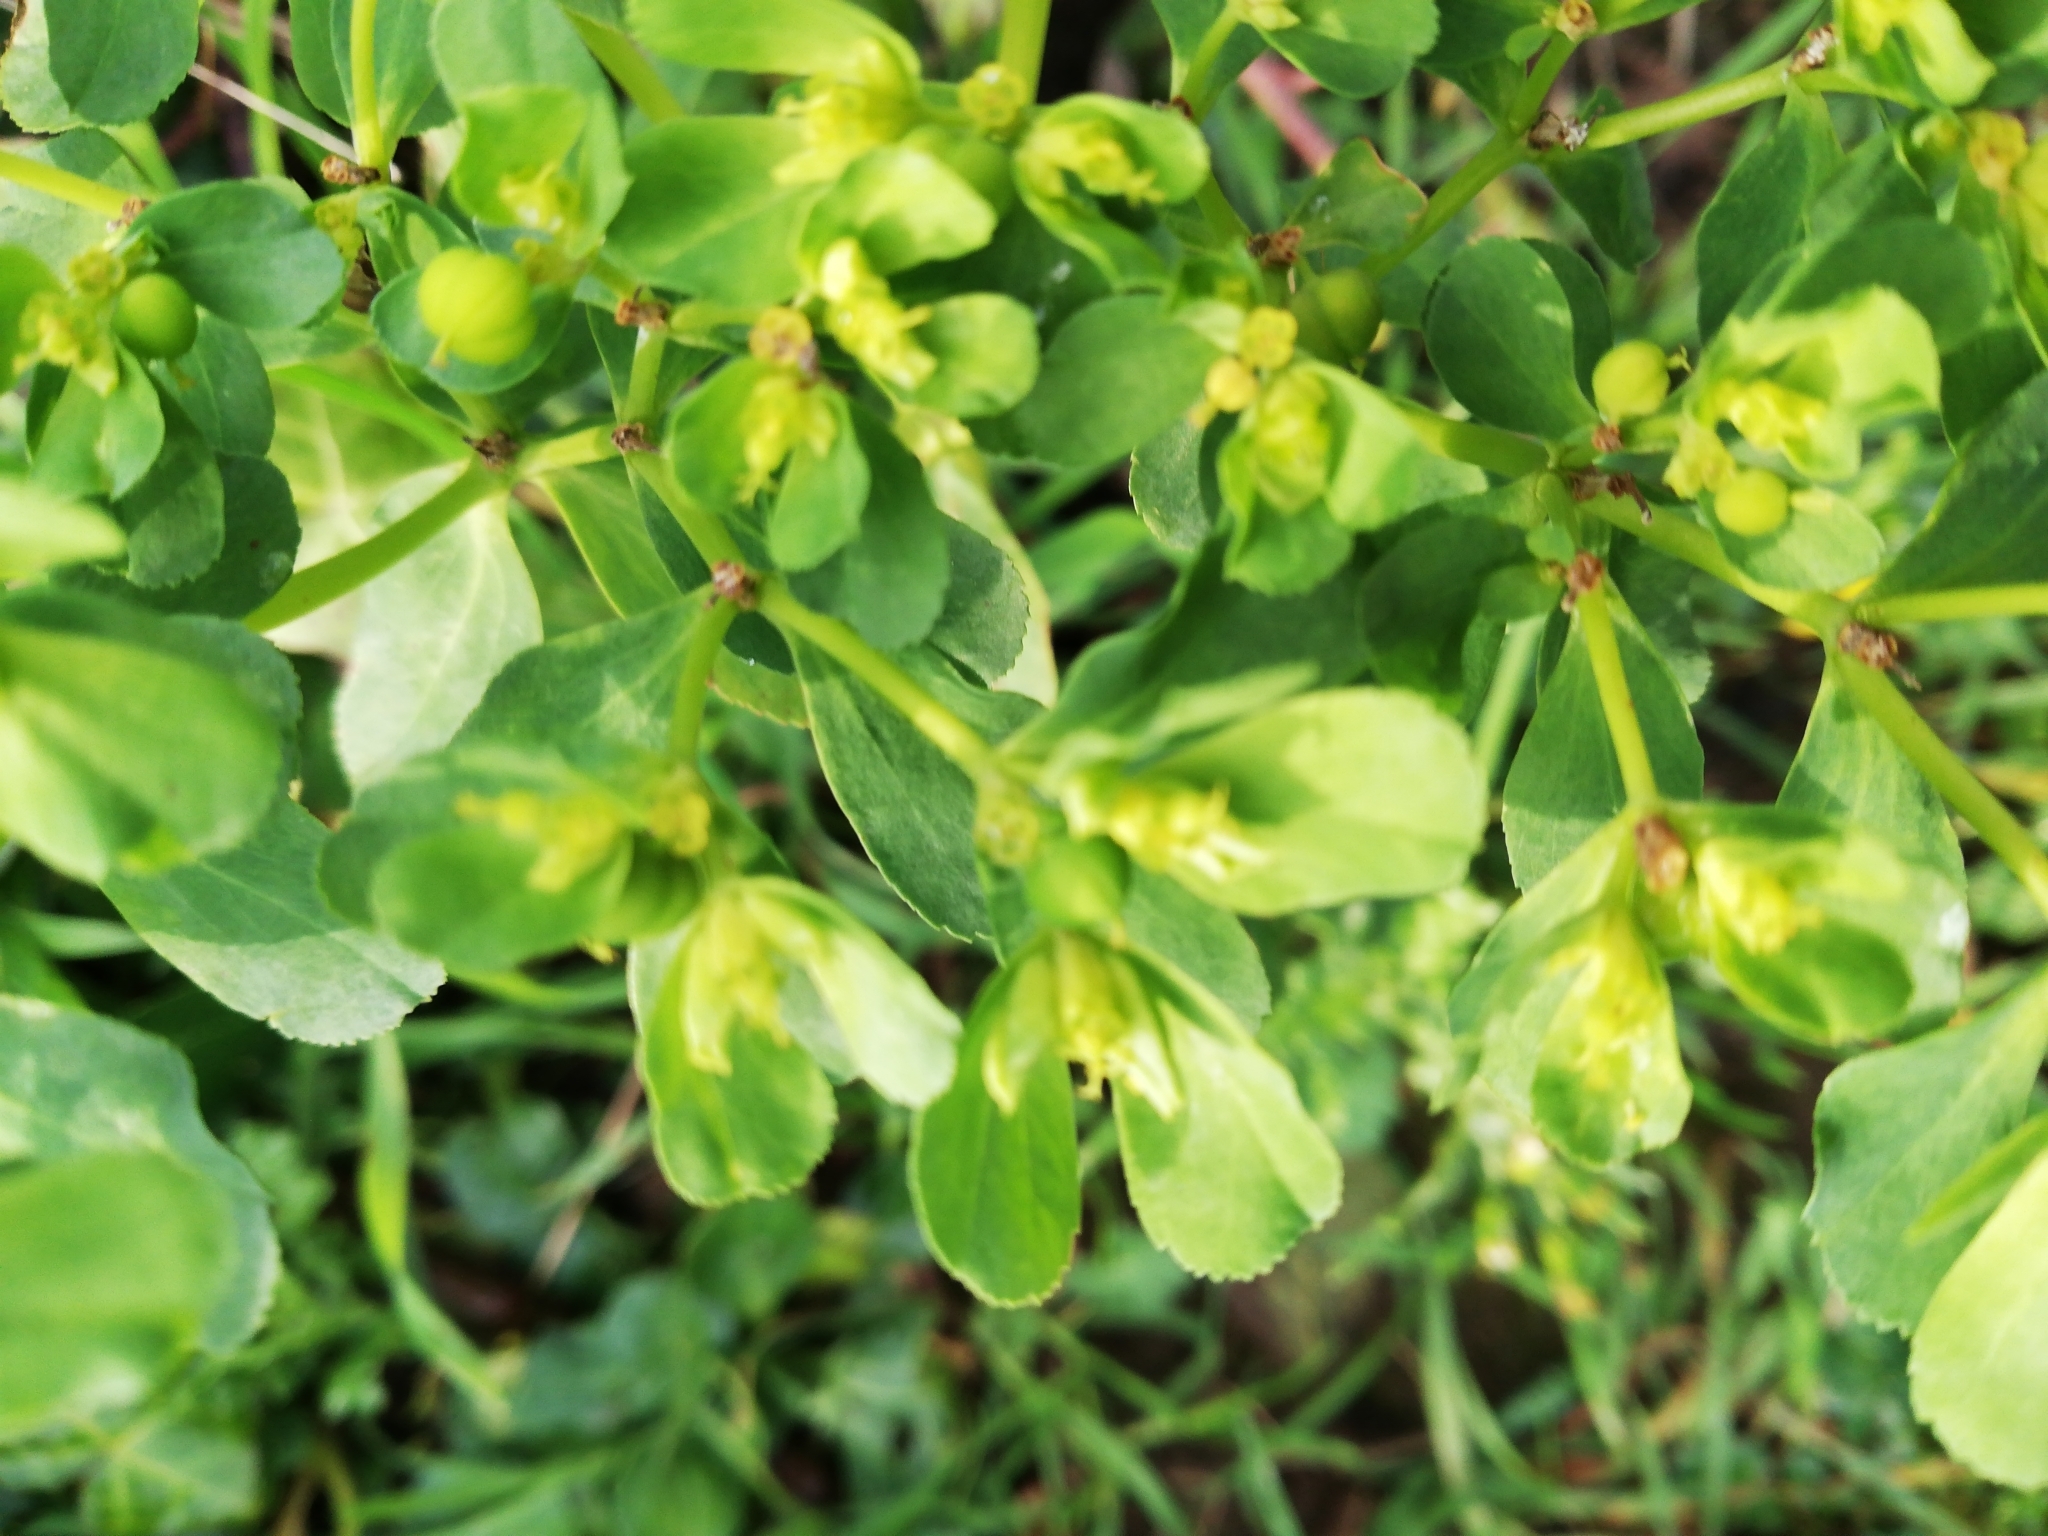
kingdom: Plantae
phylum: Tracheophyta
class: Magnoliopsida
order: Malpighiales
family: Euphorbiaceae
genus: Euphorbia
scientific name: Euphorbia helioscopia
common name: Sun spurge
